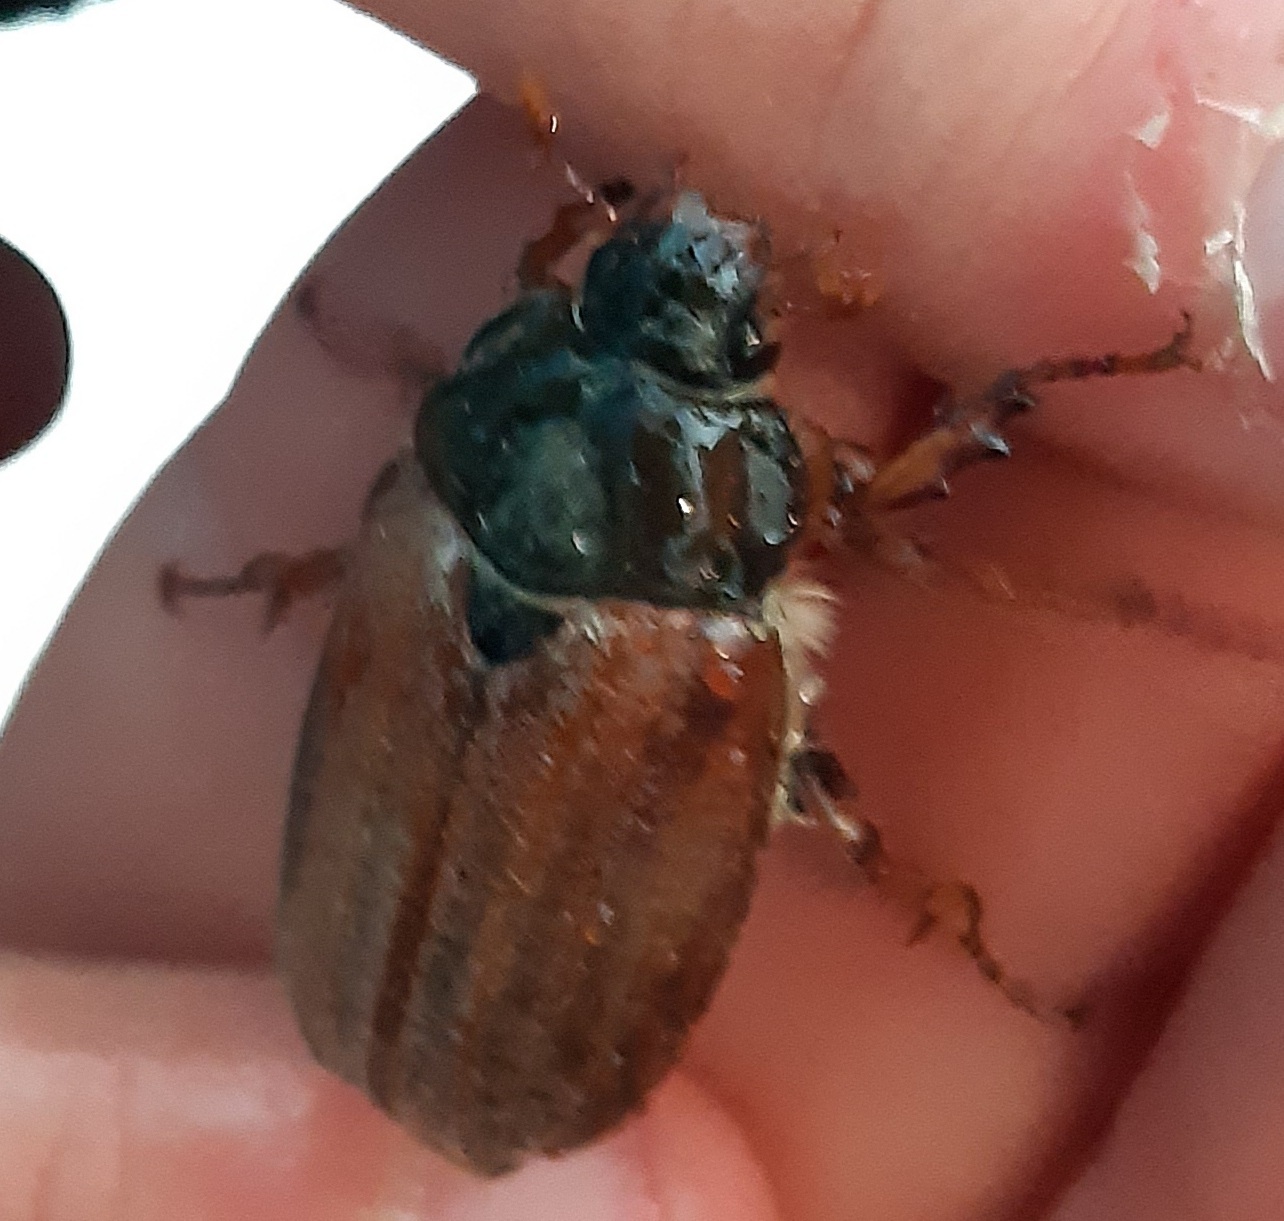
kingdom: Animalia
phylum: Arthropoda
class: Insecta
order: Coleoptera
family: Scarabaeidae
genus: Melolontha
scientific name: Melolontha melolontha
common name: Cockchafer maybeetle
